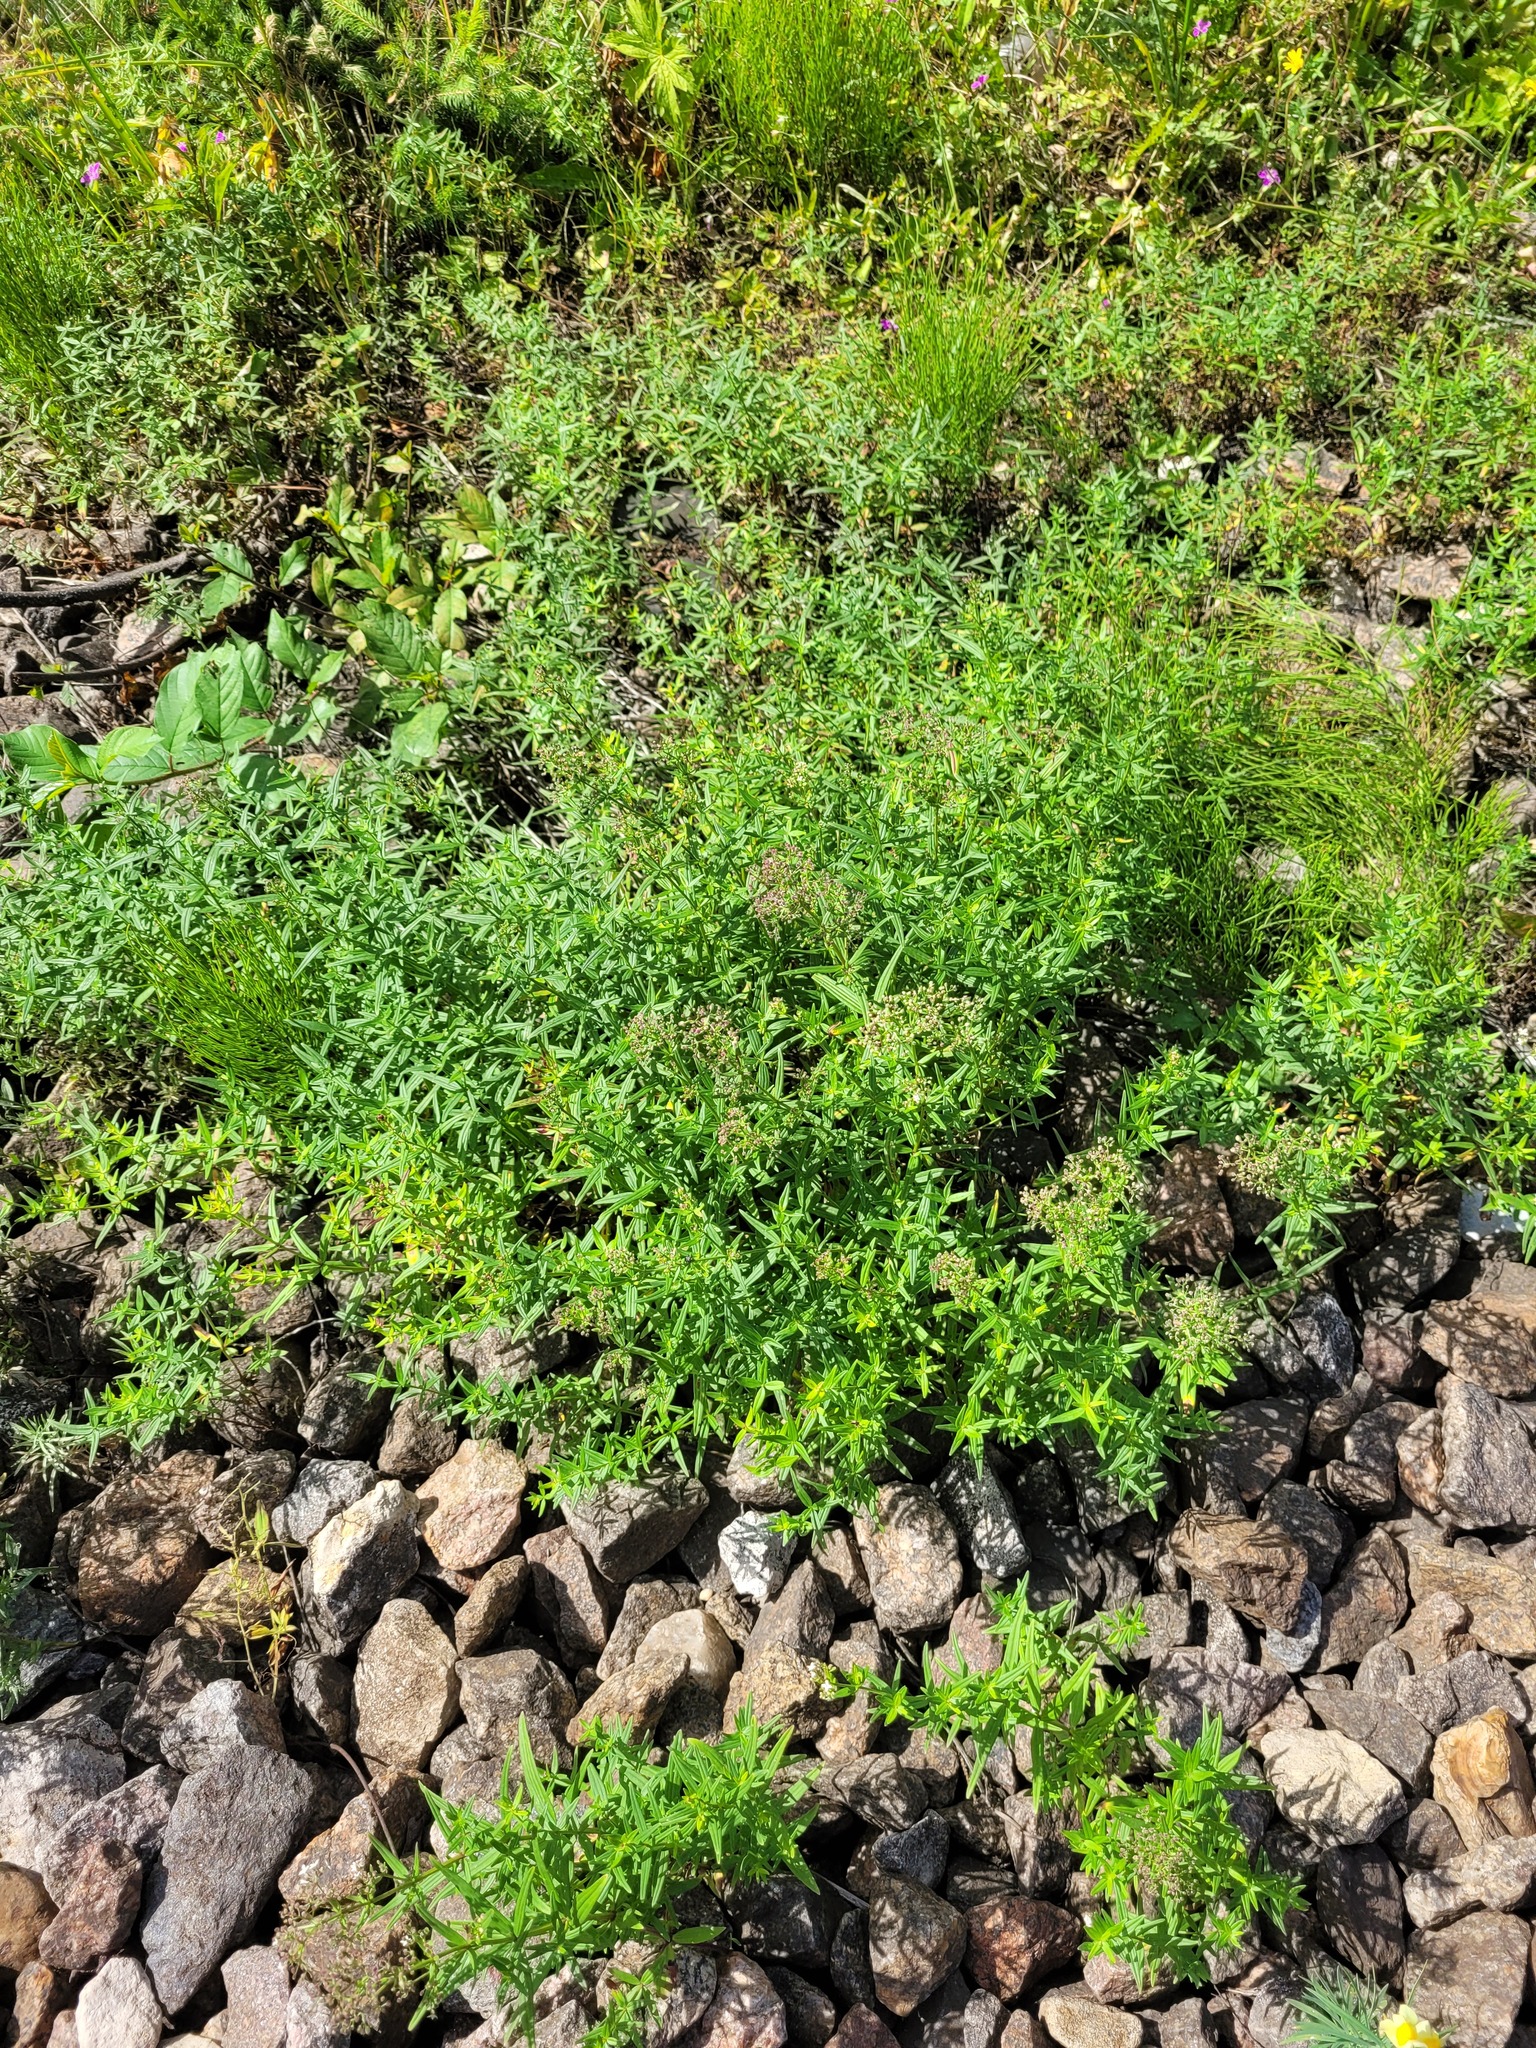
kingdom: Plantae
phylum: Tracheophyta
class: Magnoliopsida
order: Gentianales
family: Rubiaceae
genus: Galium
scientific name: Galium boreale
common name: Northern bedstraw
